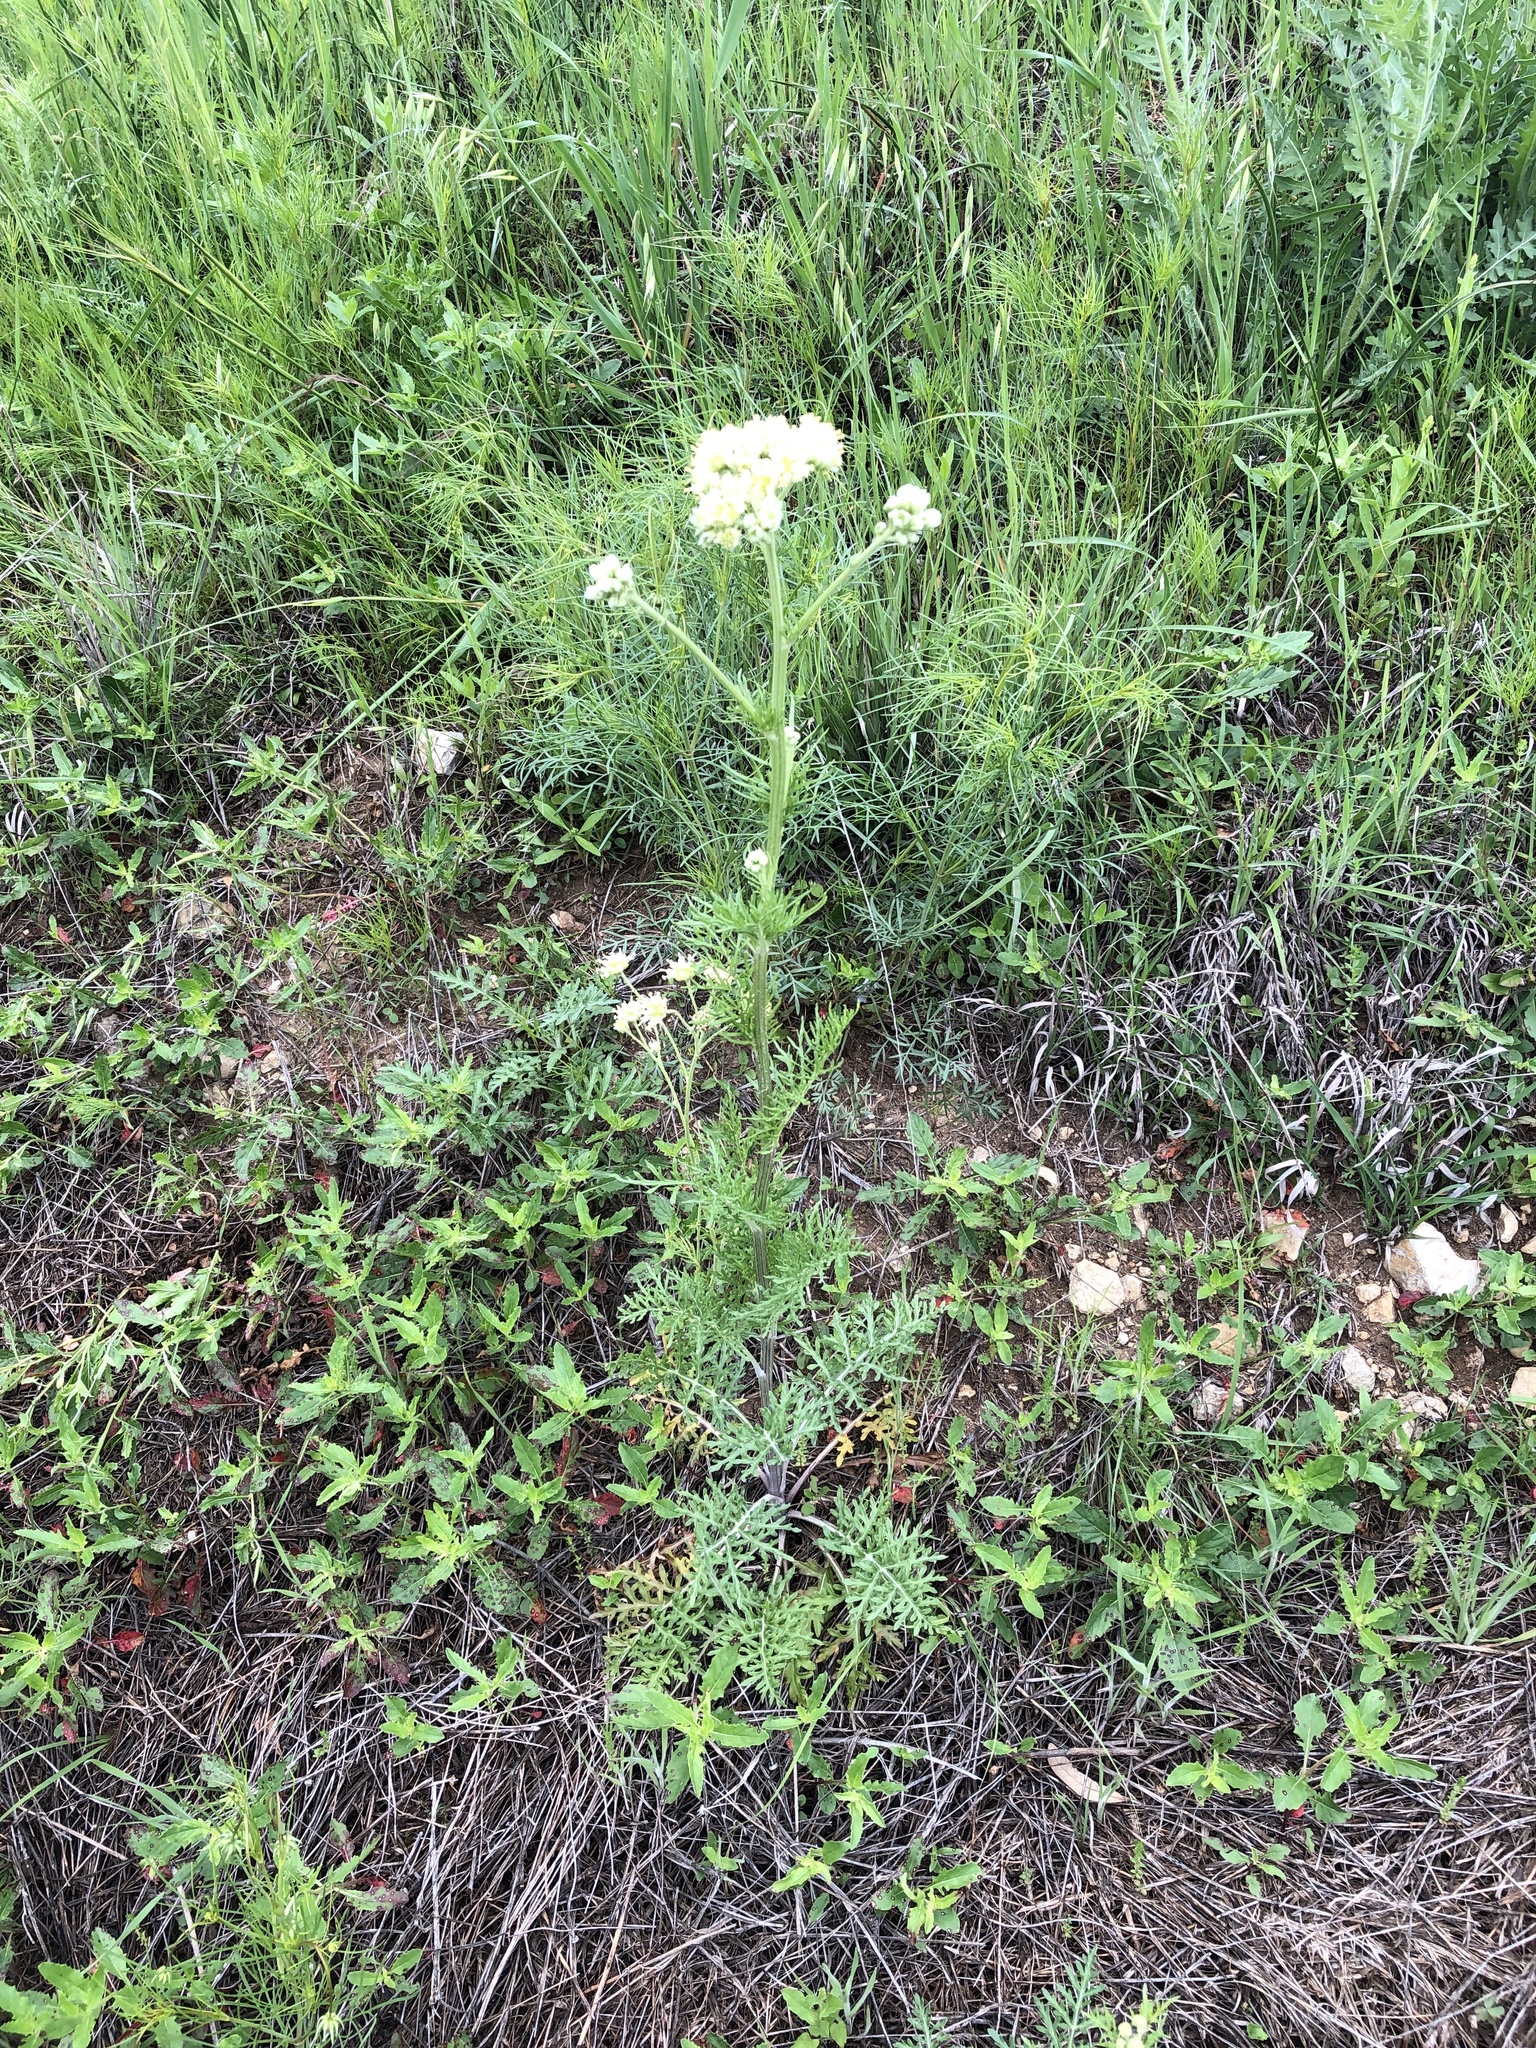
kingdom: Plantae
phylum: Tracheophyta
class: Magnoliopsida
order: Asterales
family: Asteraceae
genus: Hymenopappus
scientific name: Hymenopappus scabiosaeus
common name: Carolina woollywhite
